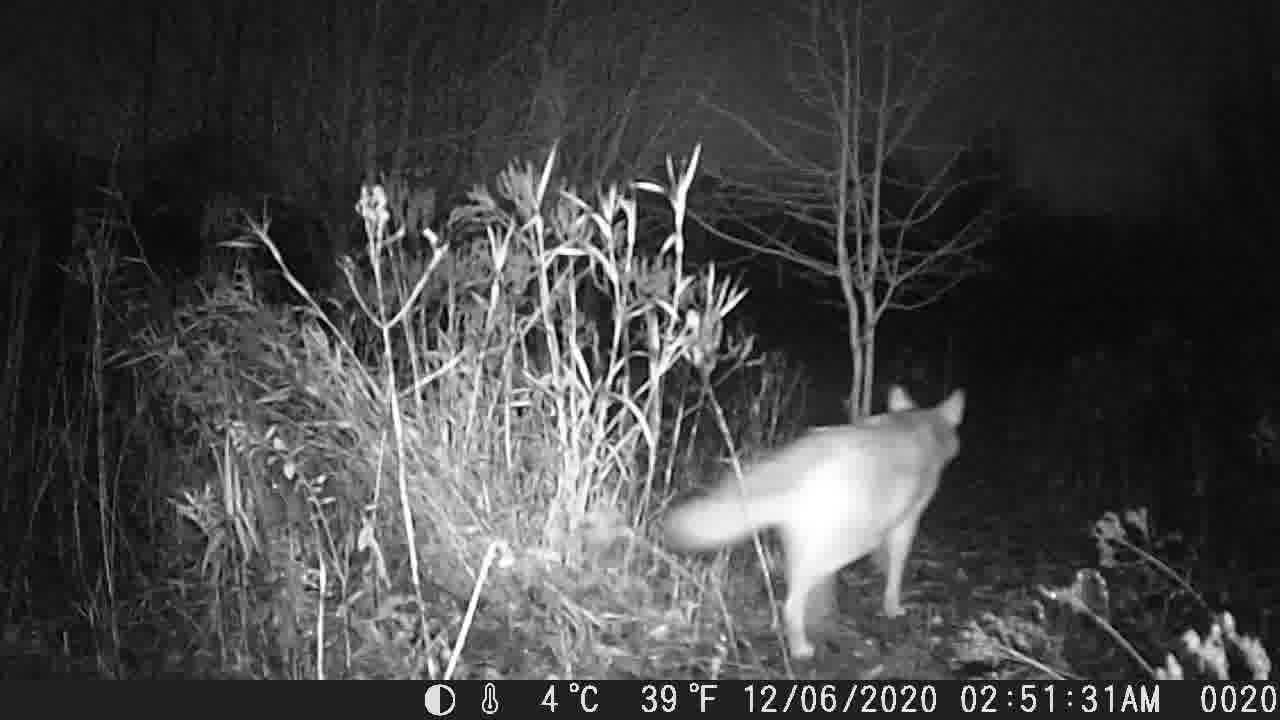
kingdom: Animalia
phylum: Chordata
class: Mammalia
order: Carnivora
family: Canidae
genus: Canis
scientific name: Canis latrans
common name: Coyote
